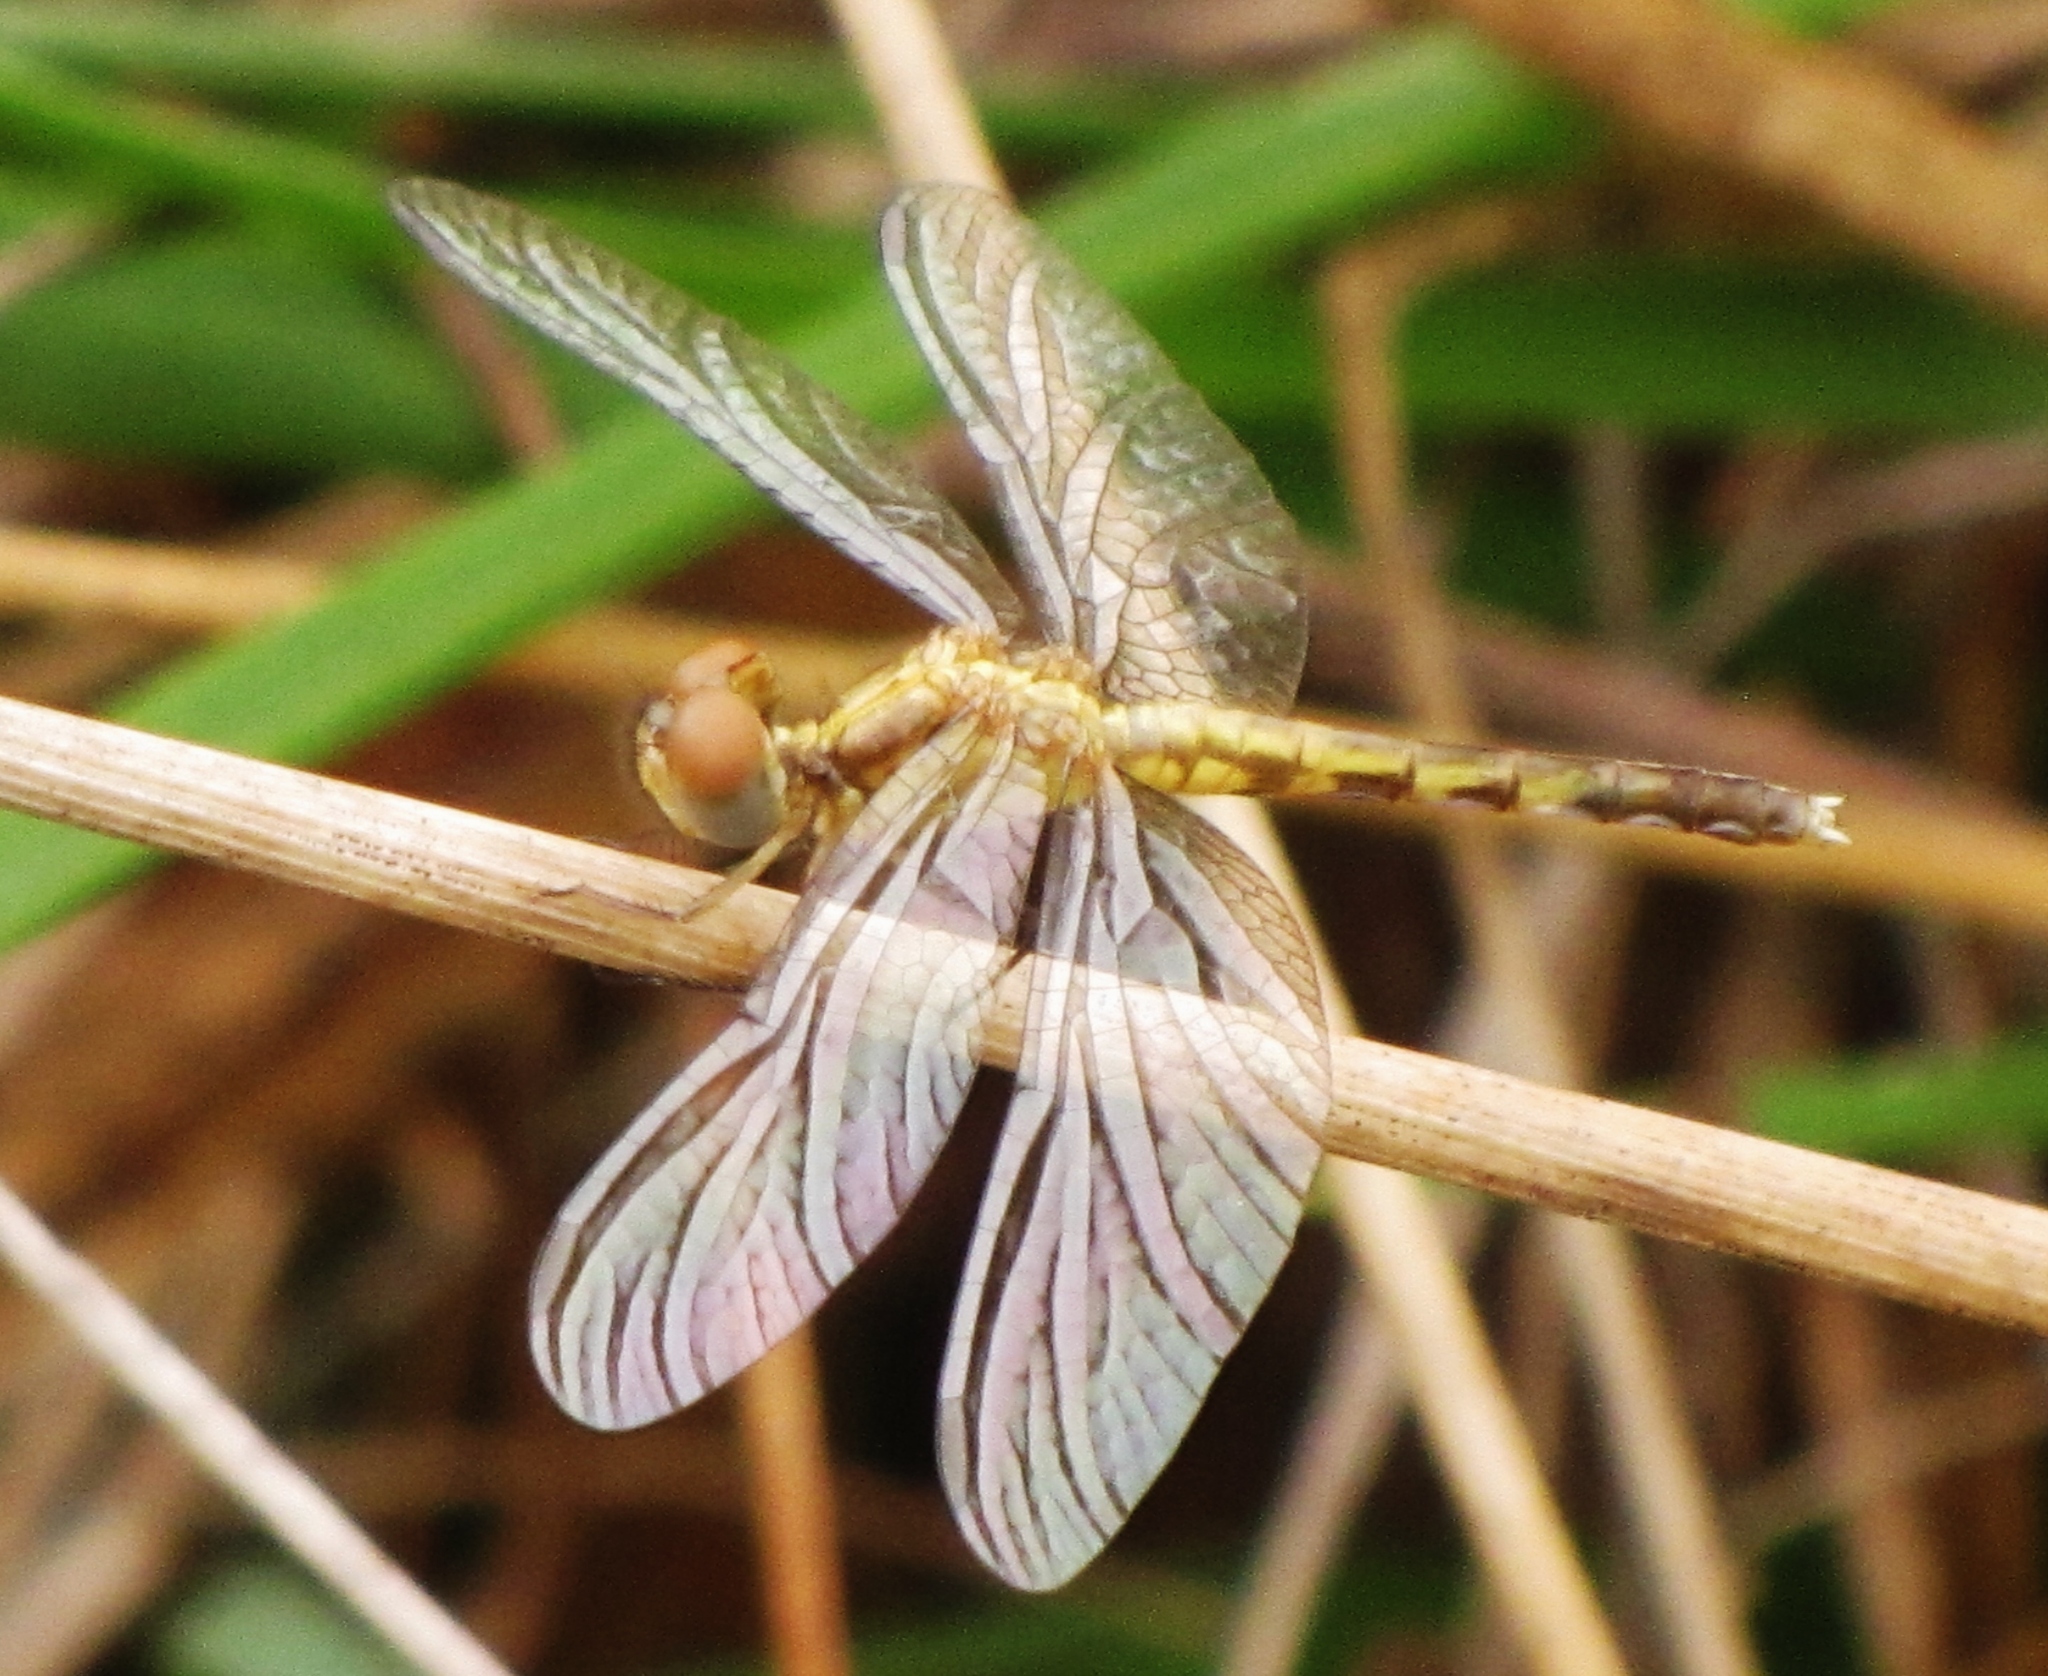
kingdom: Animalia
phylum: Arthropoda
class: Insecta
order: Odonata
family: Libellulidae
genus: Erythrodiplax
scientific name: Erythrodiplax minuscula
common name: Little blue dragonlet
